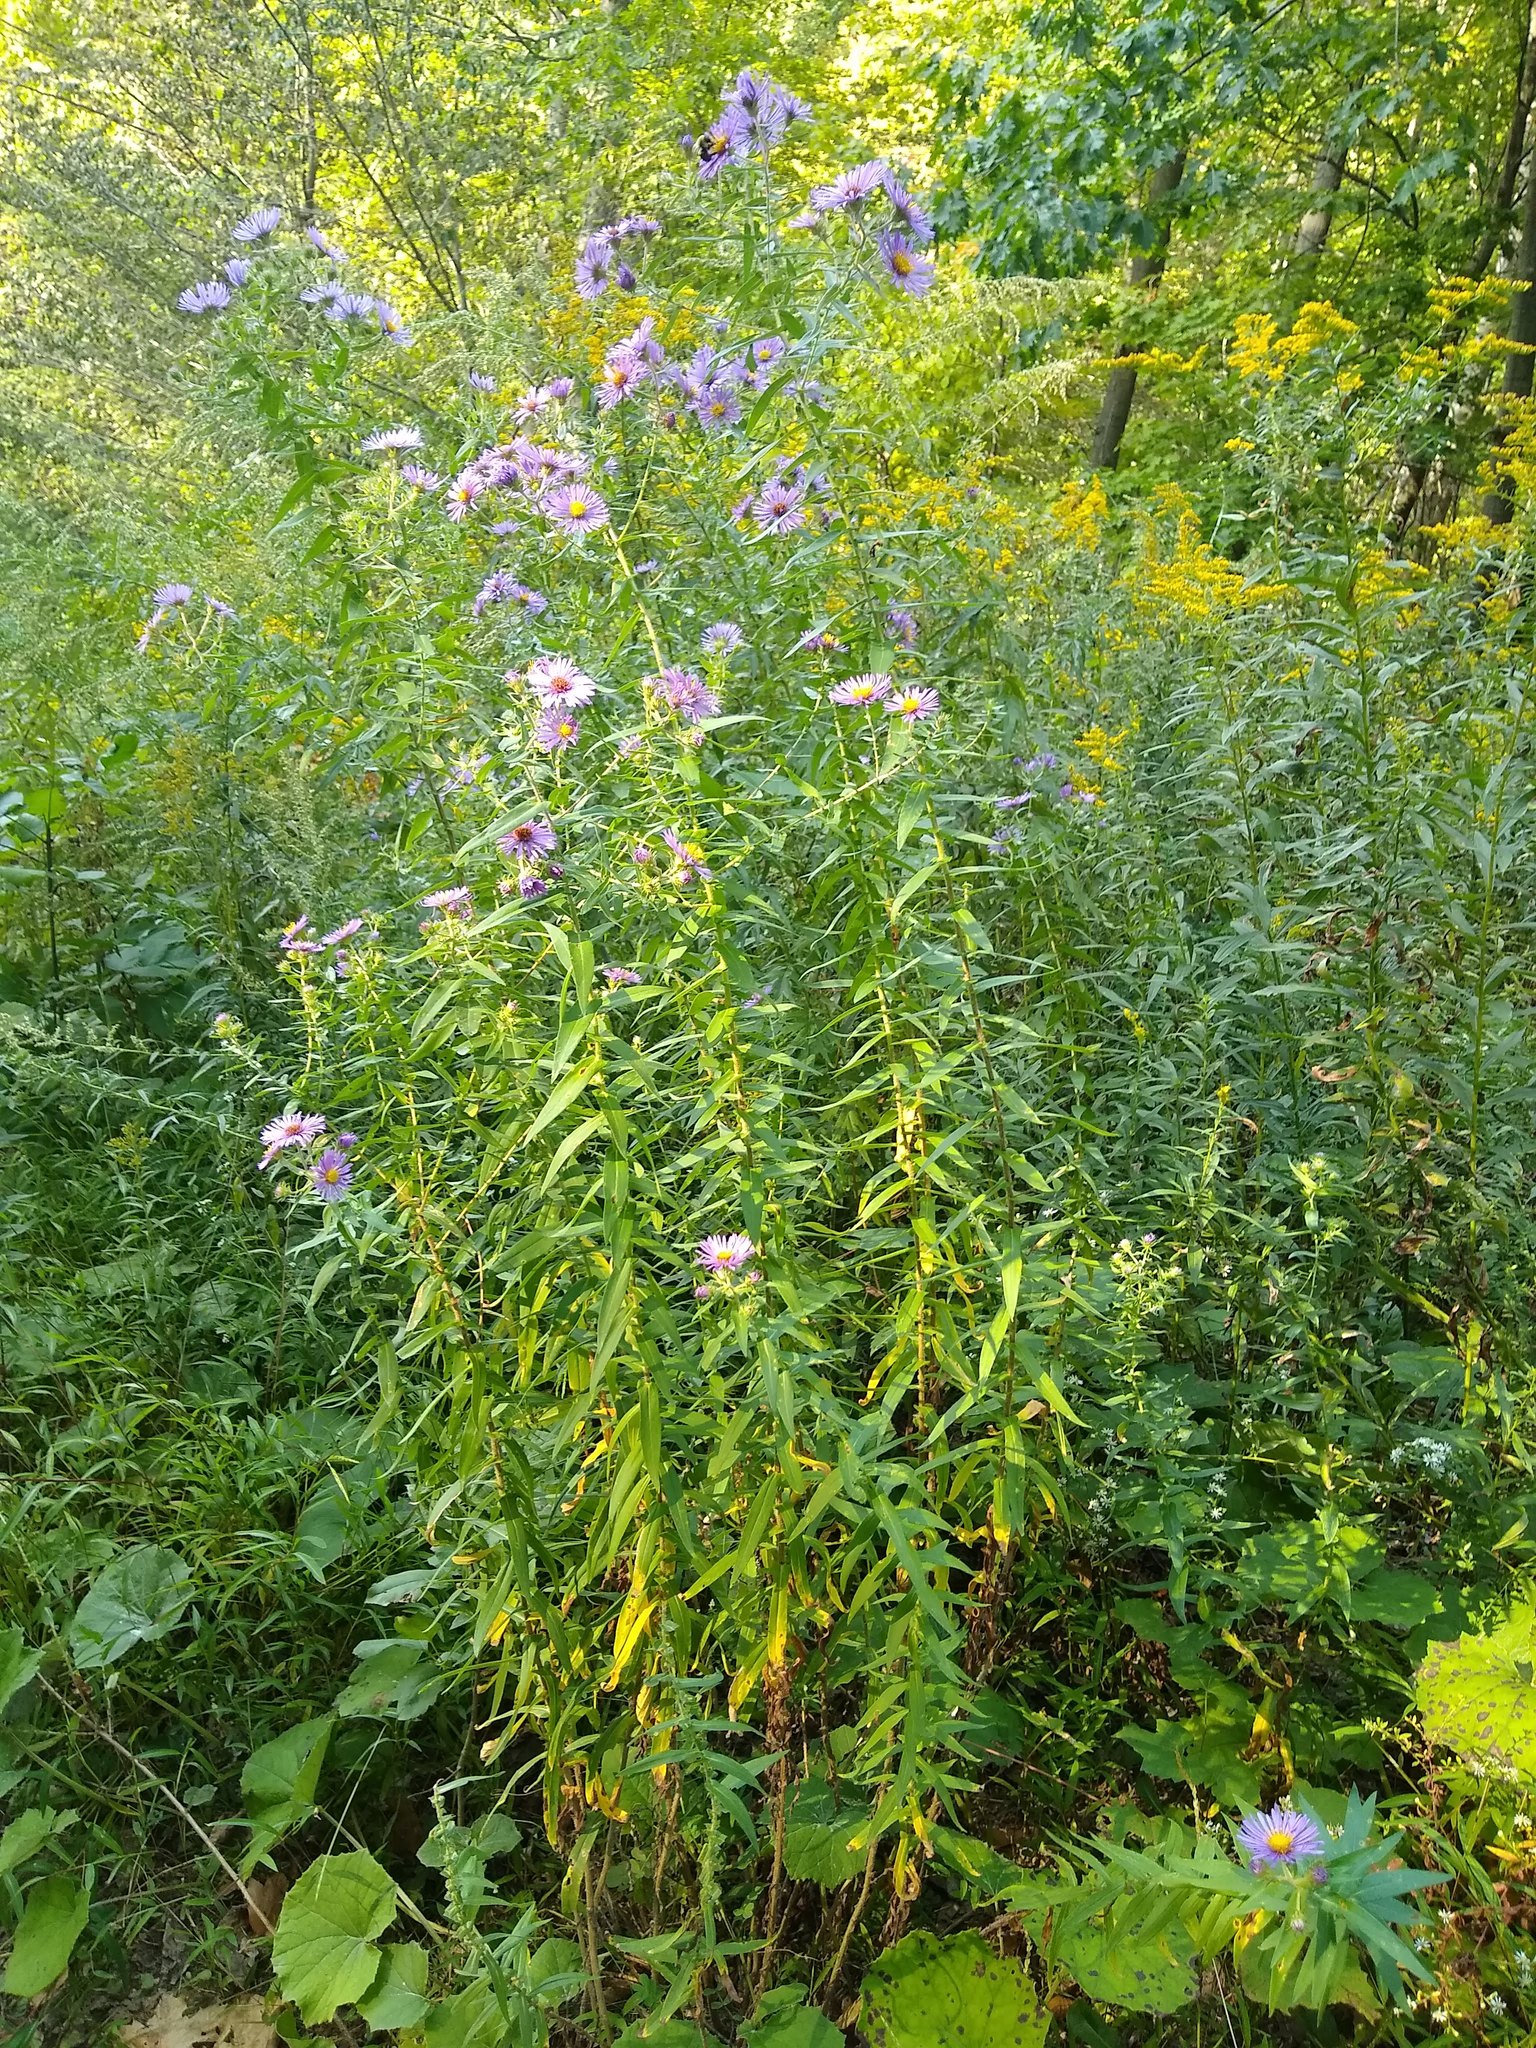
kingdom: Plantae
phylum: Tracheophyta
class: Magnoliopsida
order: Asterales
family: Asteraceae
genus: Symphyotrichum
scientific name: Symphyotrichum novae-angliae
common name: Michaelmas daisy
